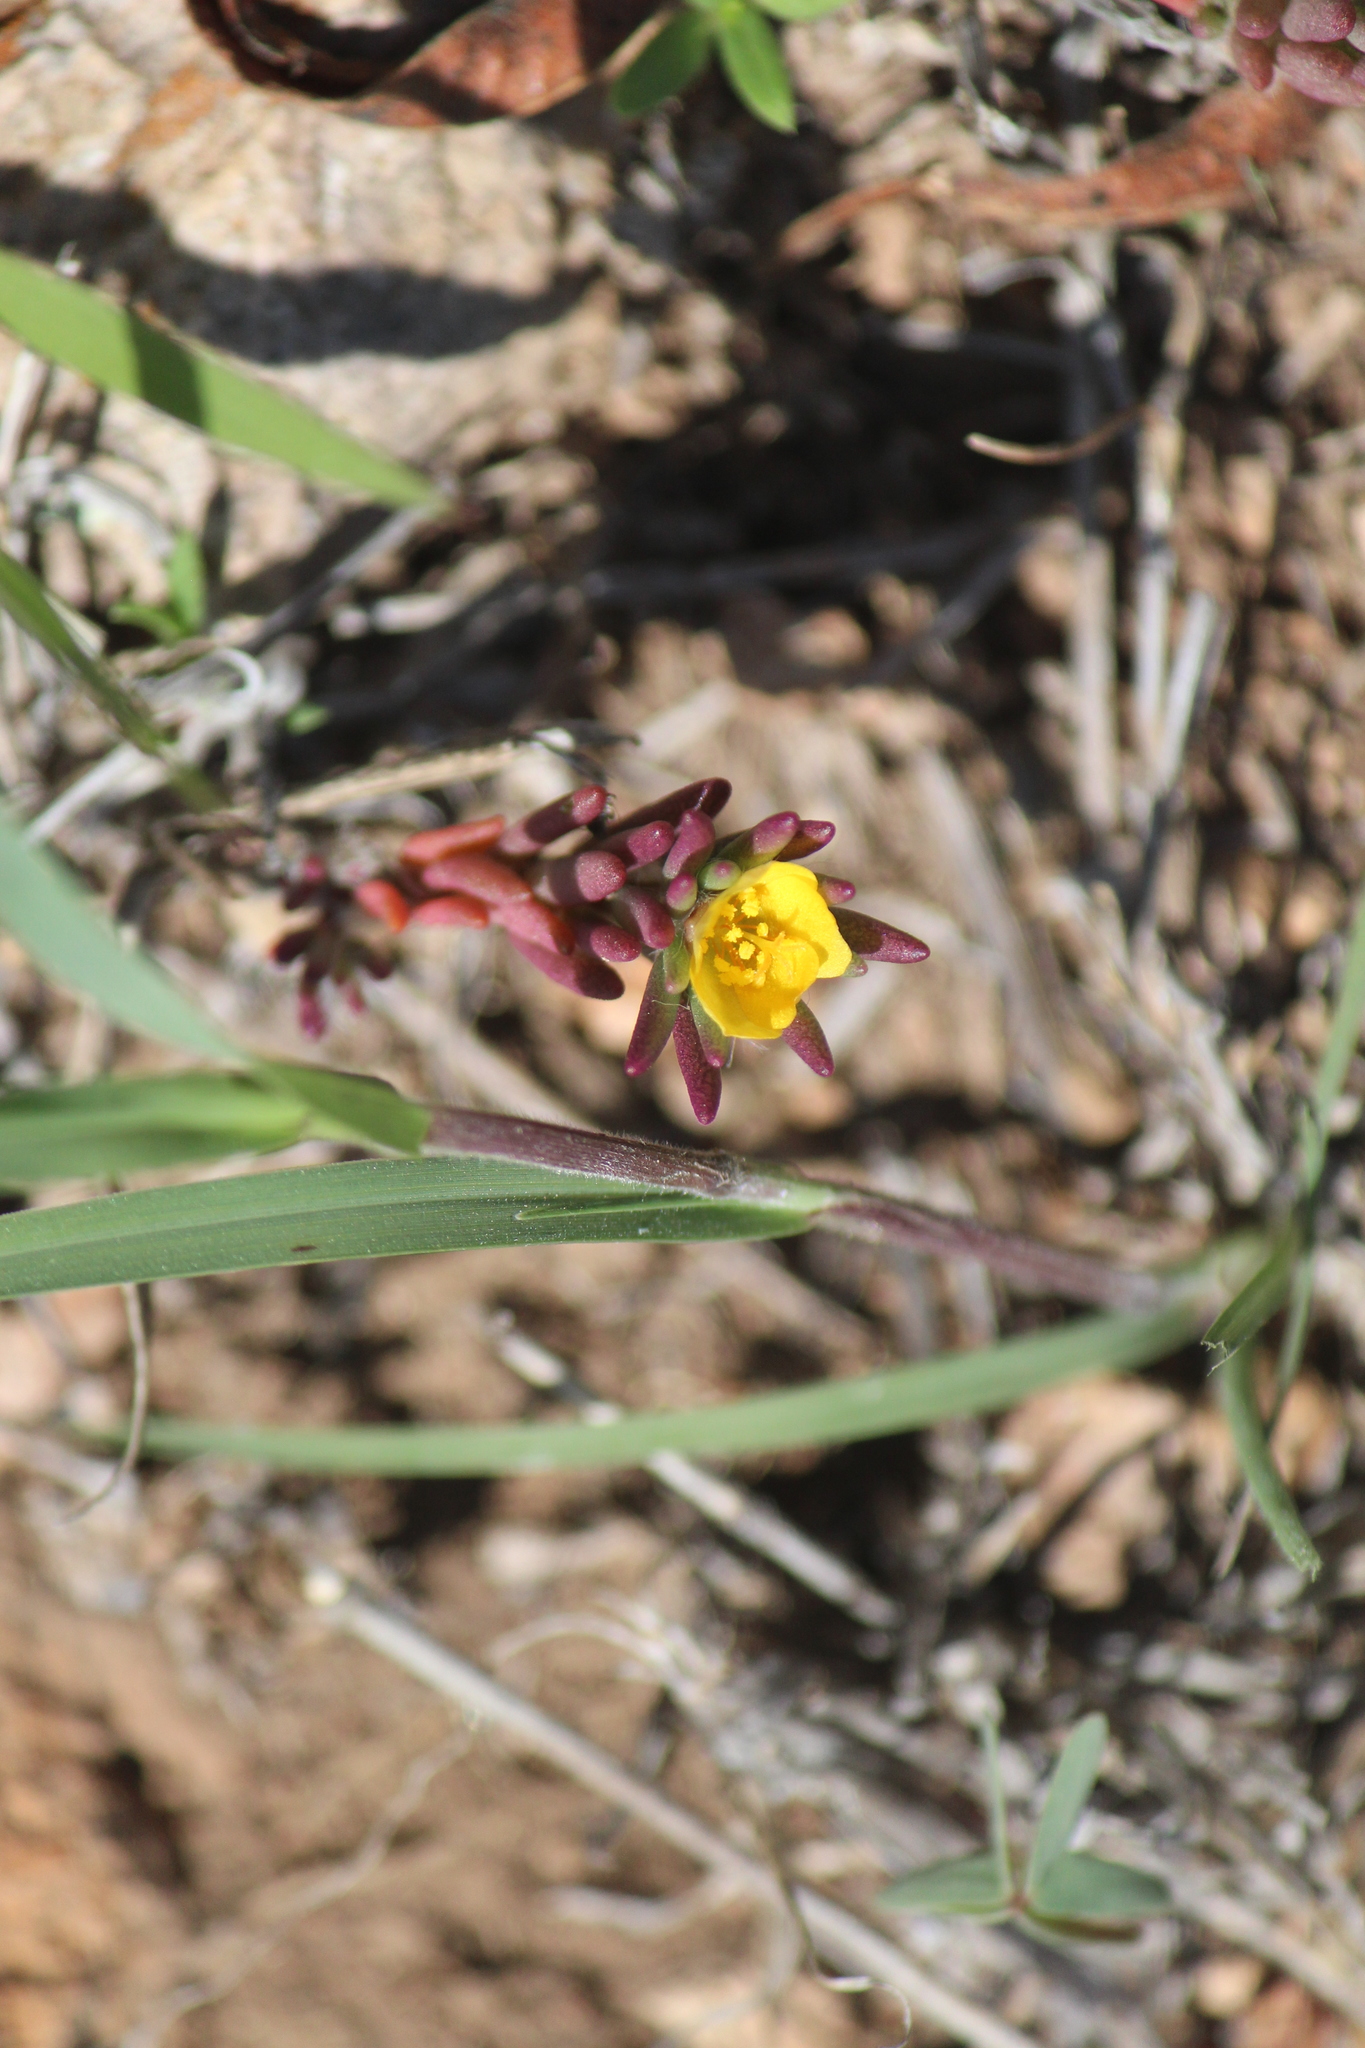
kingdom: Plantae
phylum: Tracheophyta
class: Magnoliopsida
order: Caryophyllales
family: Portulacaceae
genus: Portulaca
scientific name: Portulaca pilosa
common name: Kiss me quick
